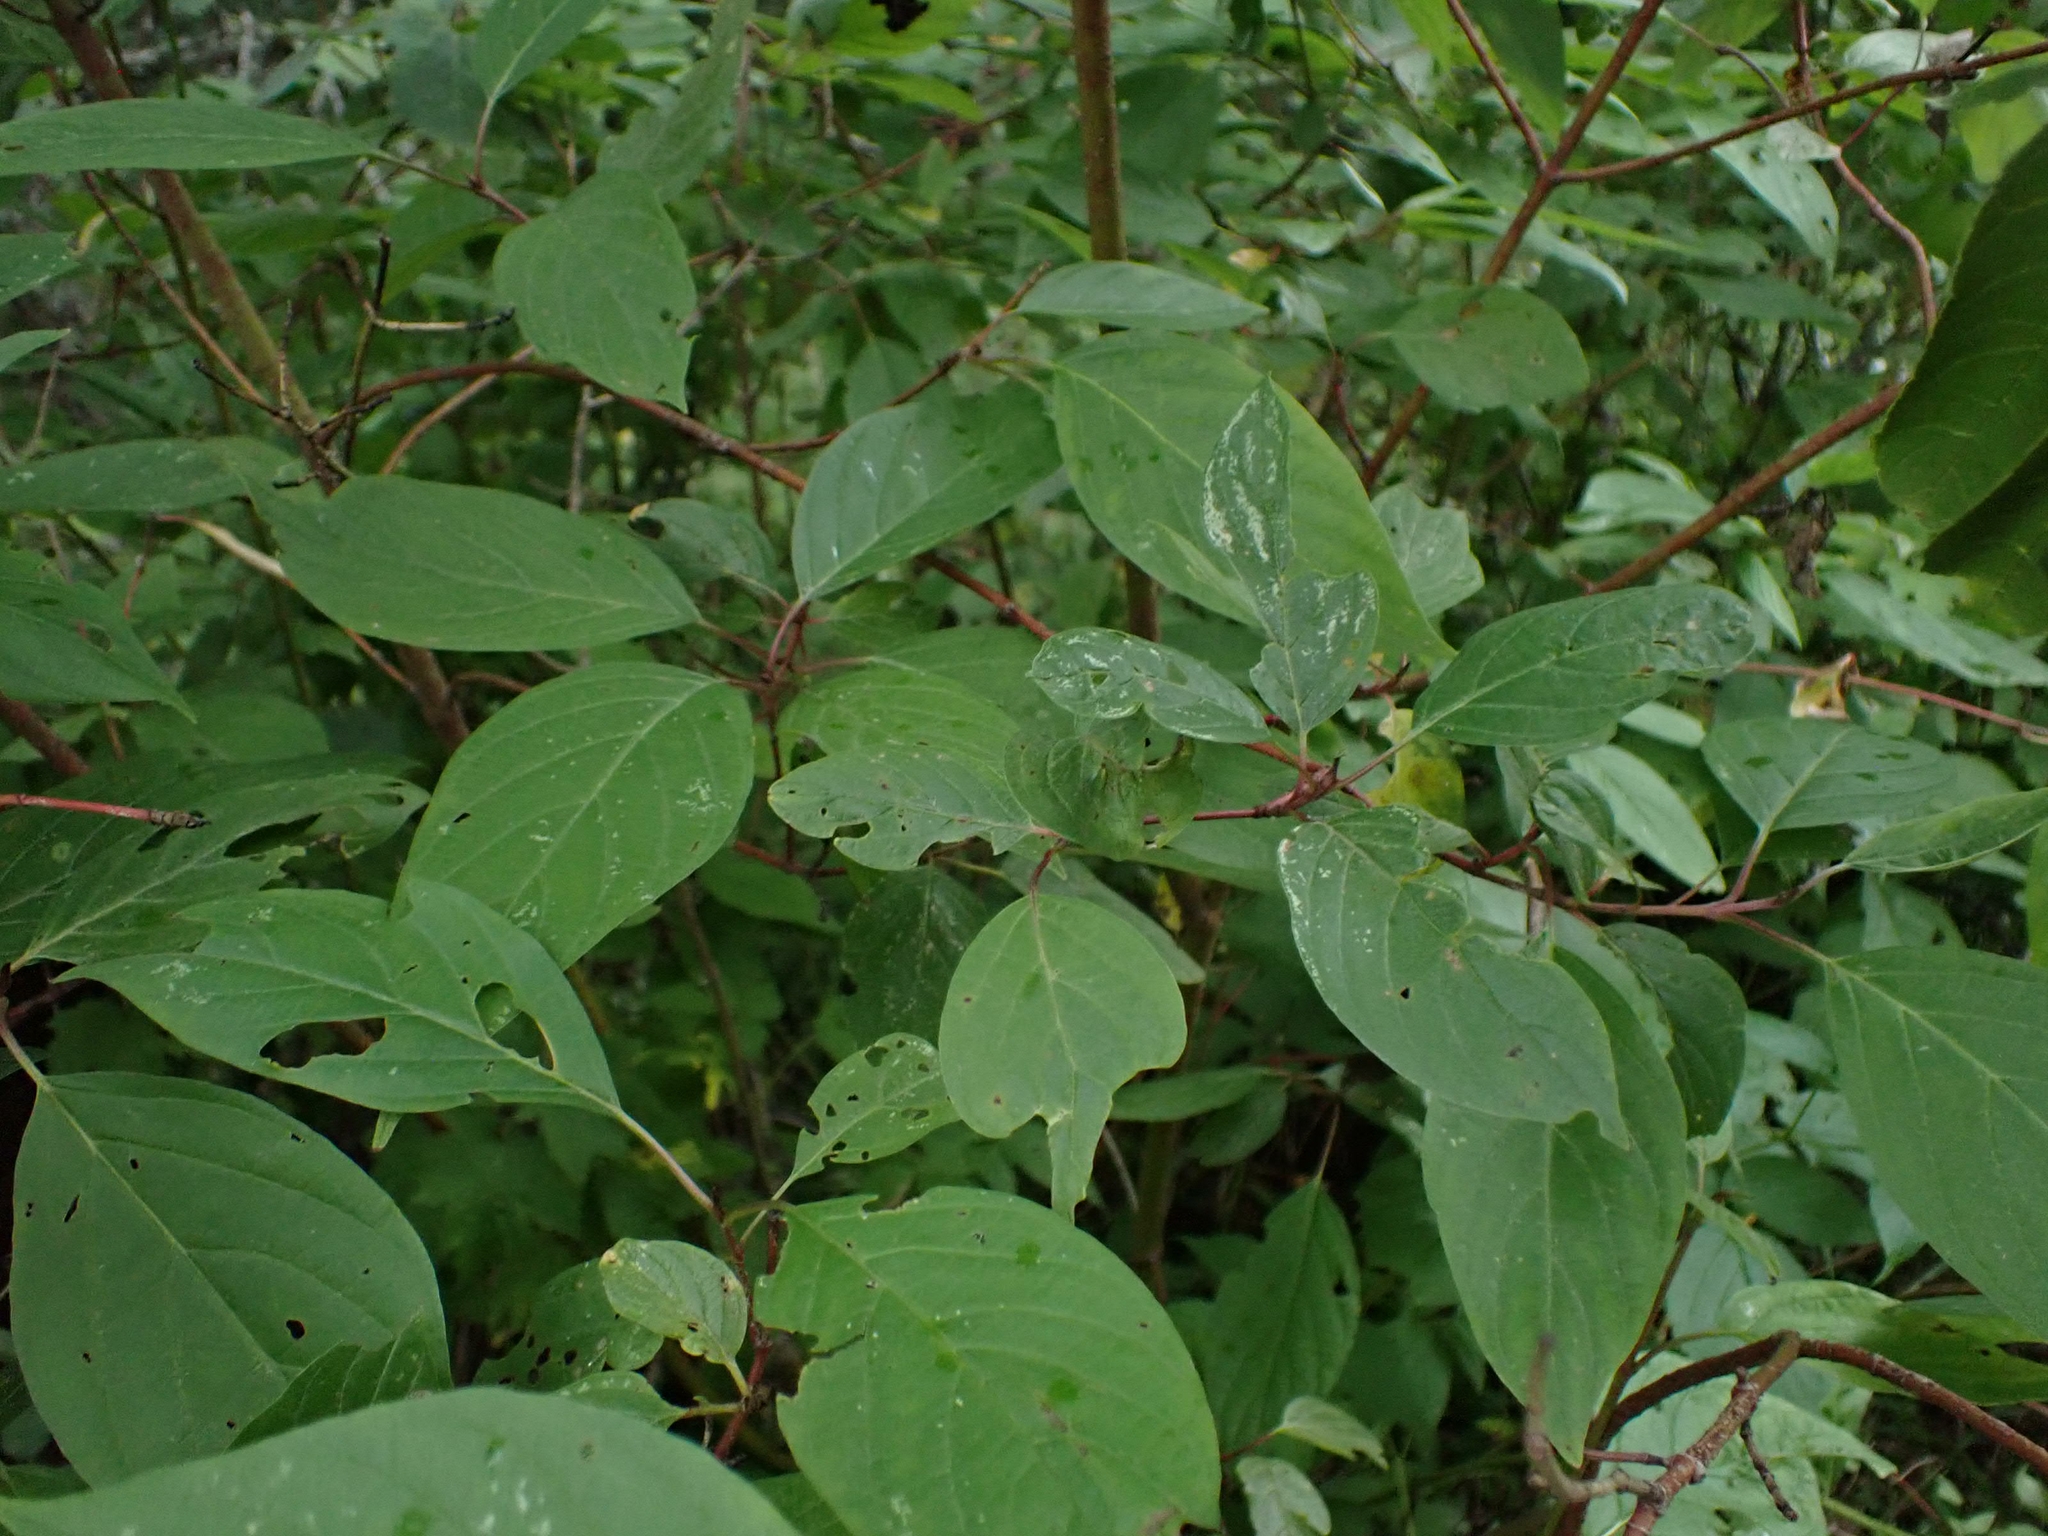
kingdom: Plantae
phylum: Tracheophyta
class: Magnoliopsida
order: Cornales
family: Cornaceae
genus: Cornus
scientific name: Cornus sericea
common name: Red-osier dogwood
